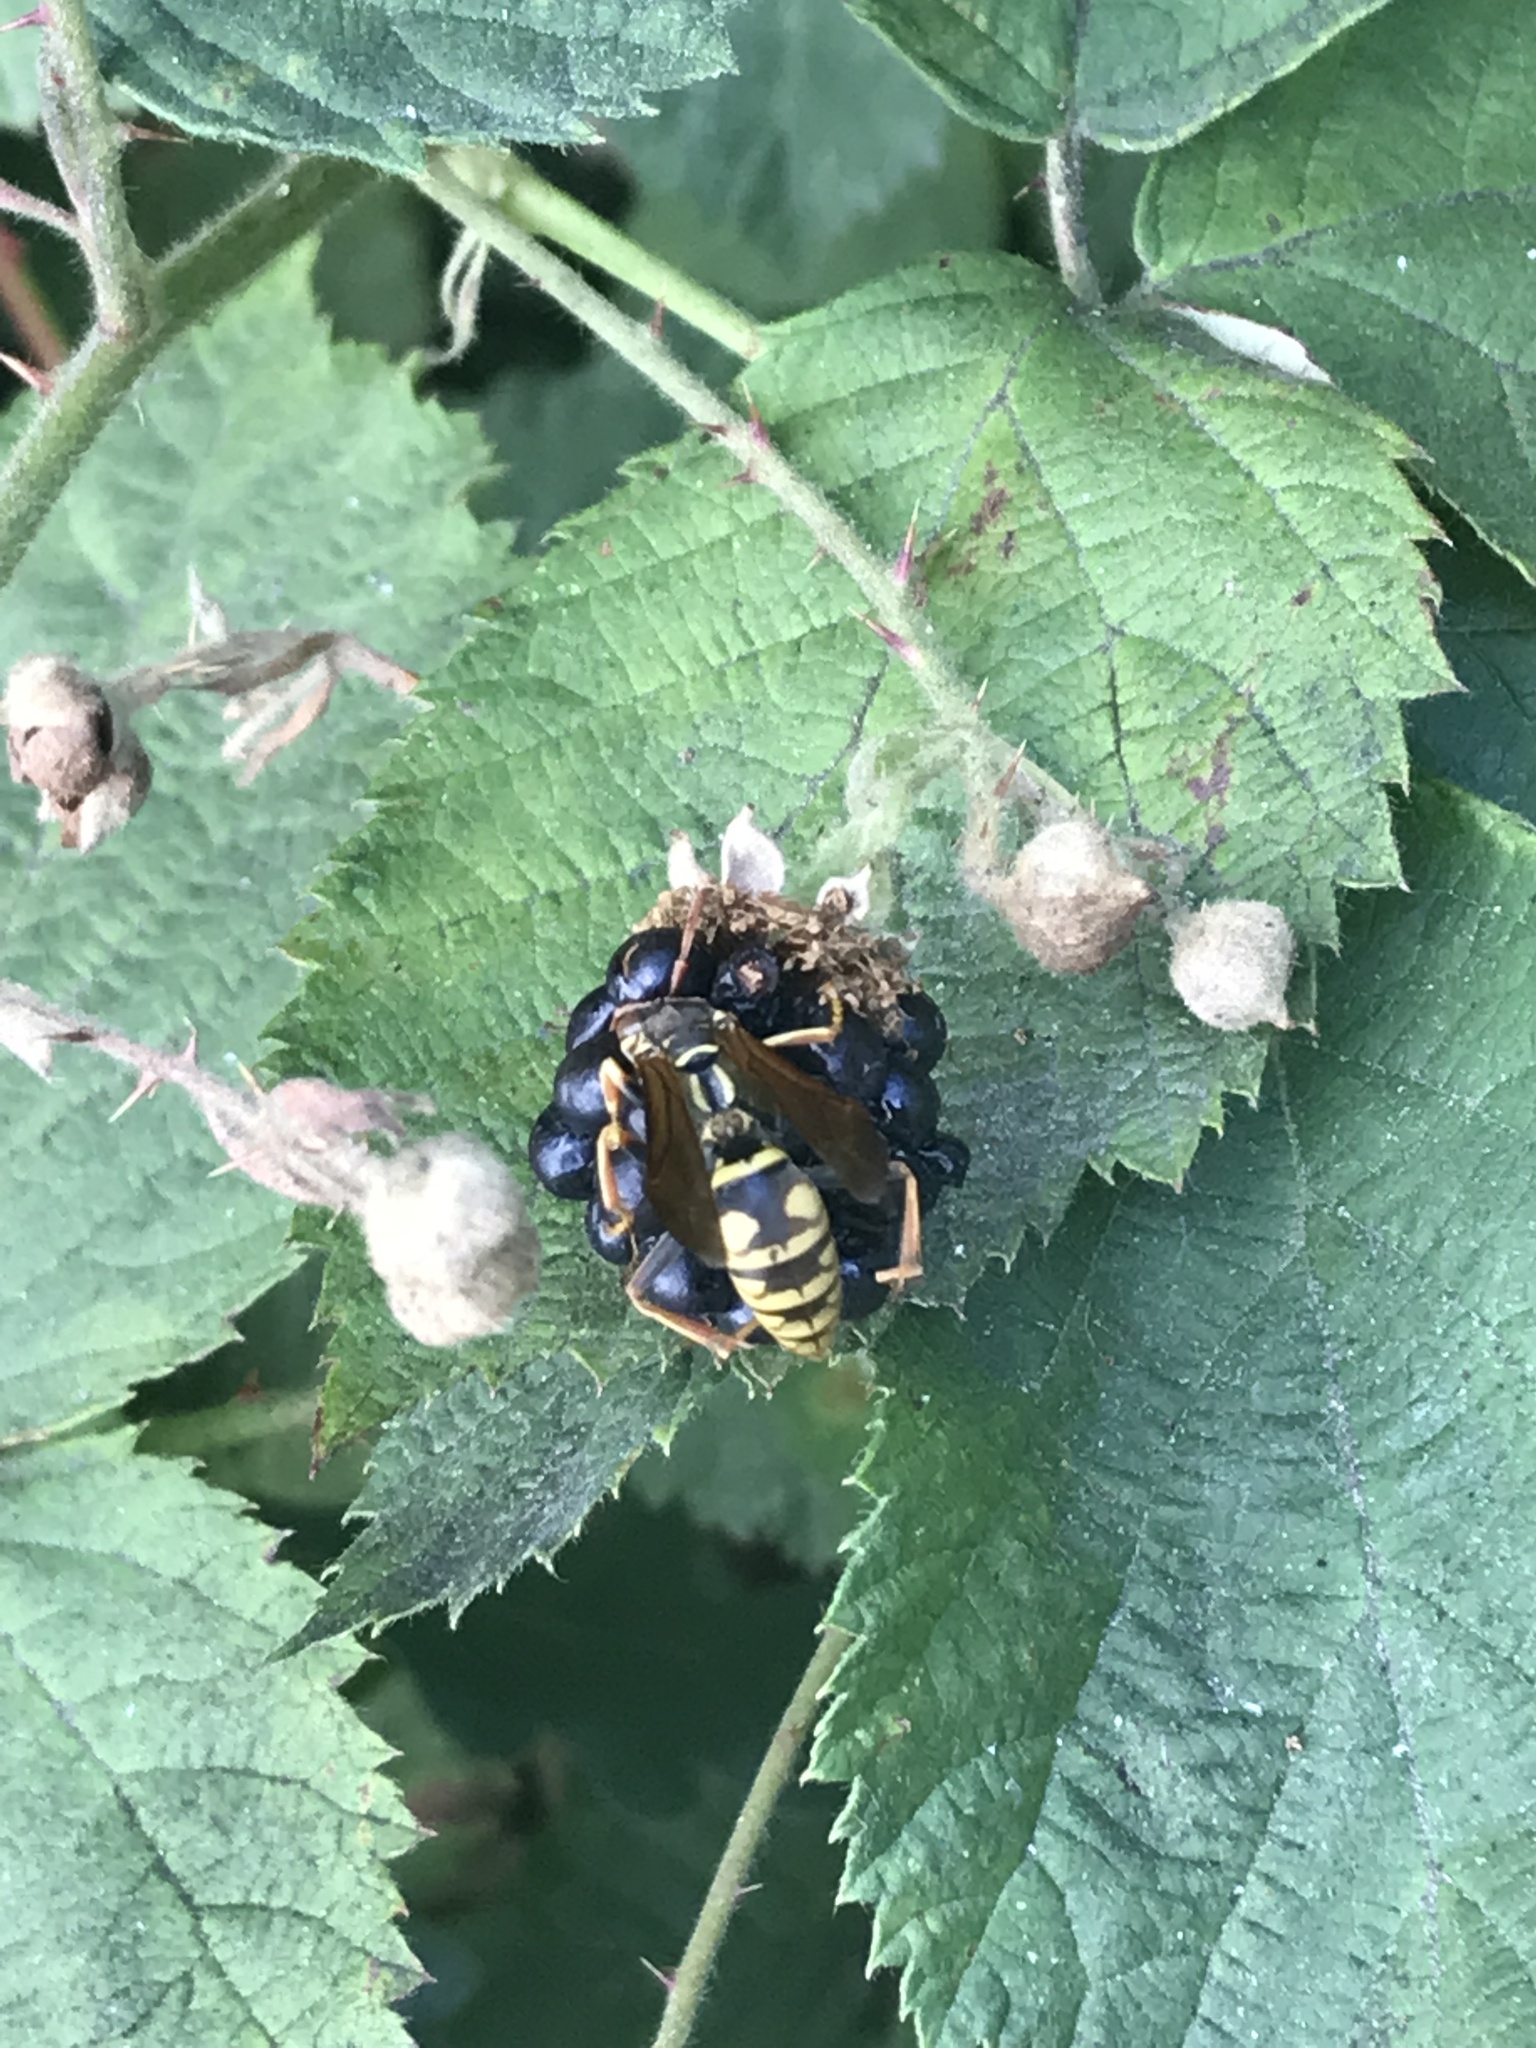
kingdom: Animalia
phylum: Arthropoda
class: Insecta
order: Hymenoptera
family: Eumenidae
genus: Polistes
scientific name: Polistes aurifer
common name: Paper wasp
